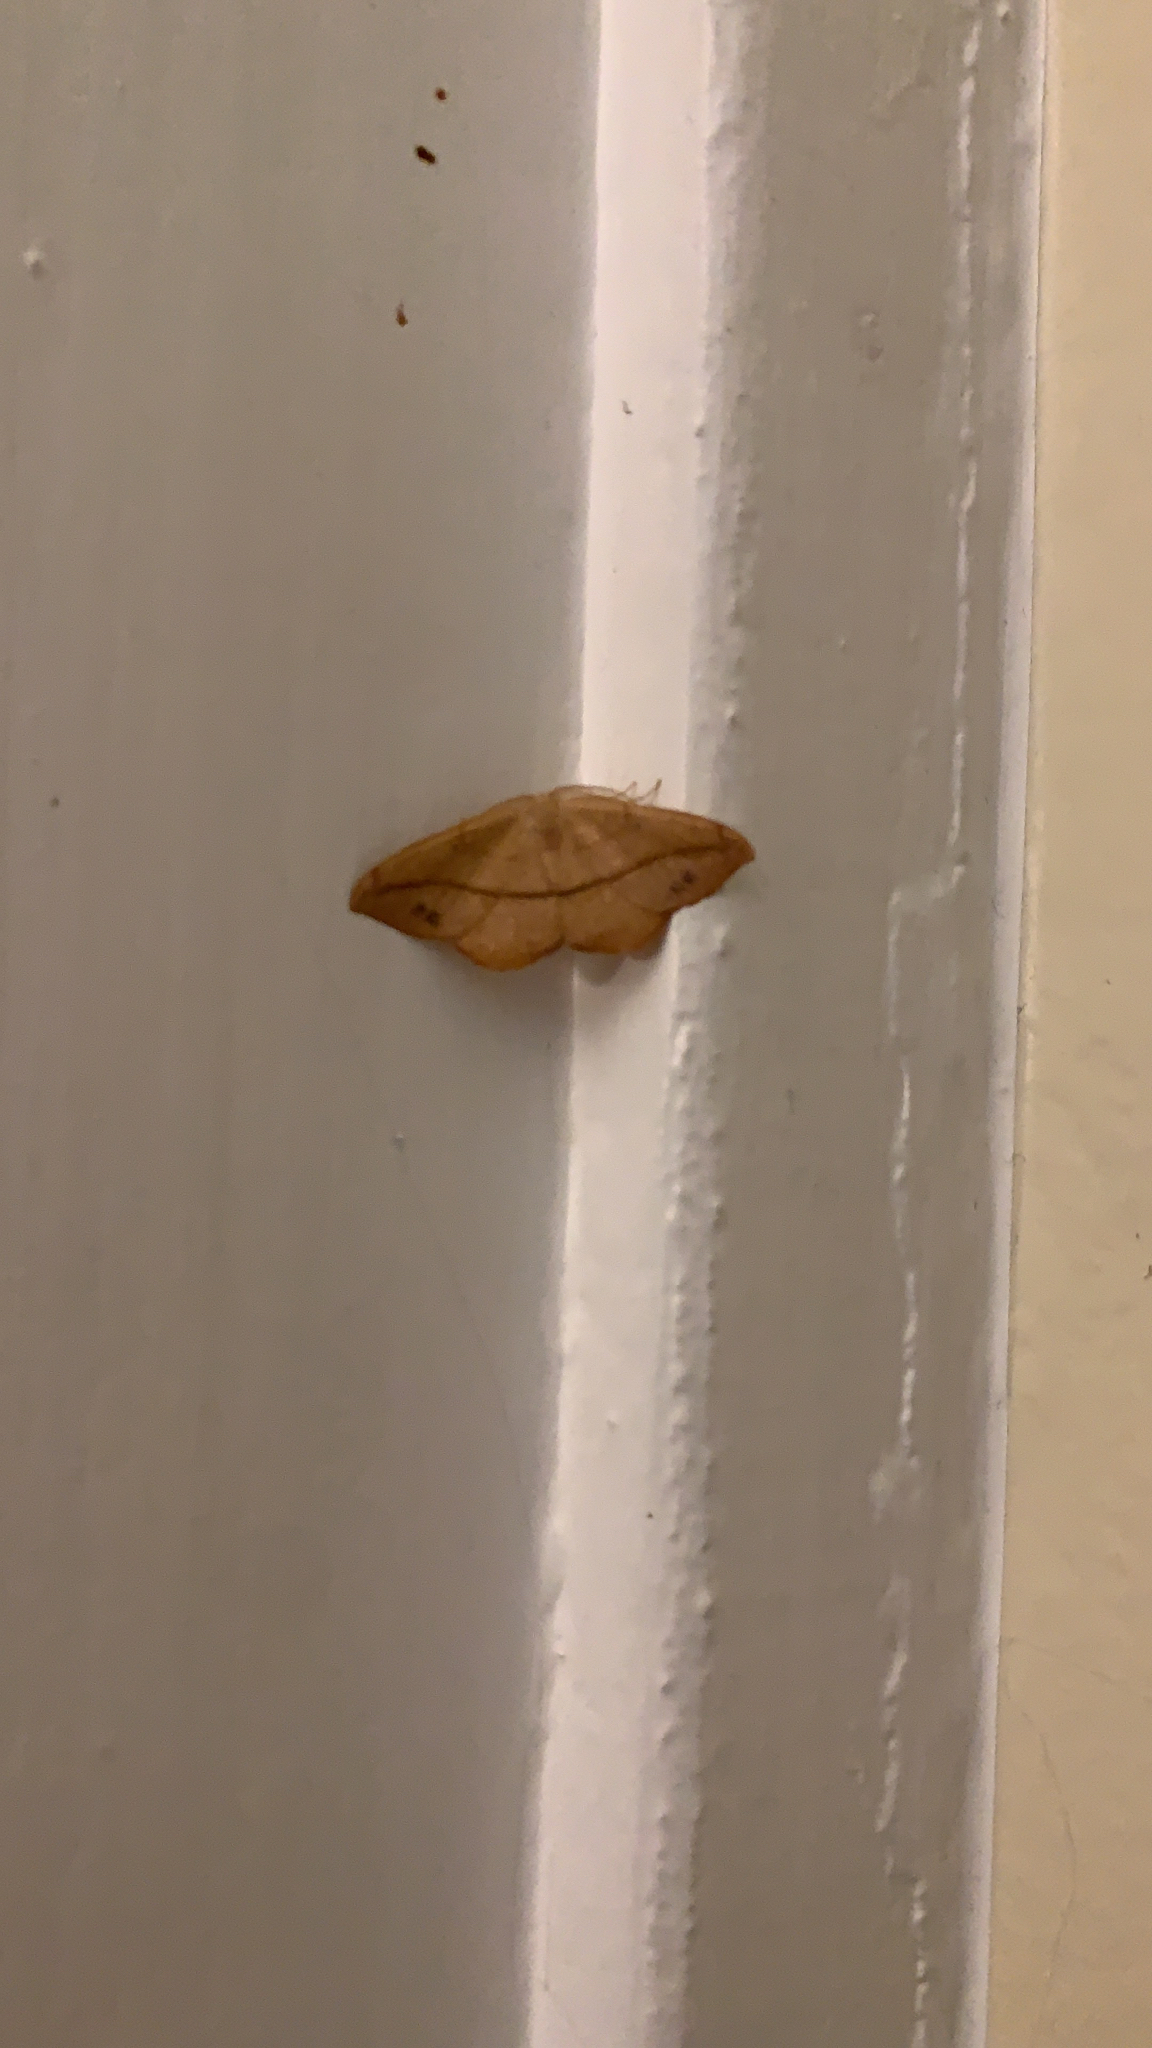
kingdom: Animalia
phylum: Arthropoda
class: Insecta
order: Lepidoptera
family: Geometridae
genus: Patalene
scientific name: Patalene olyzonaria
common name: Juniper geometer moth
